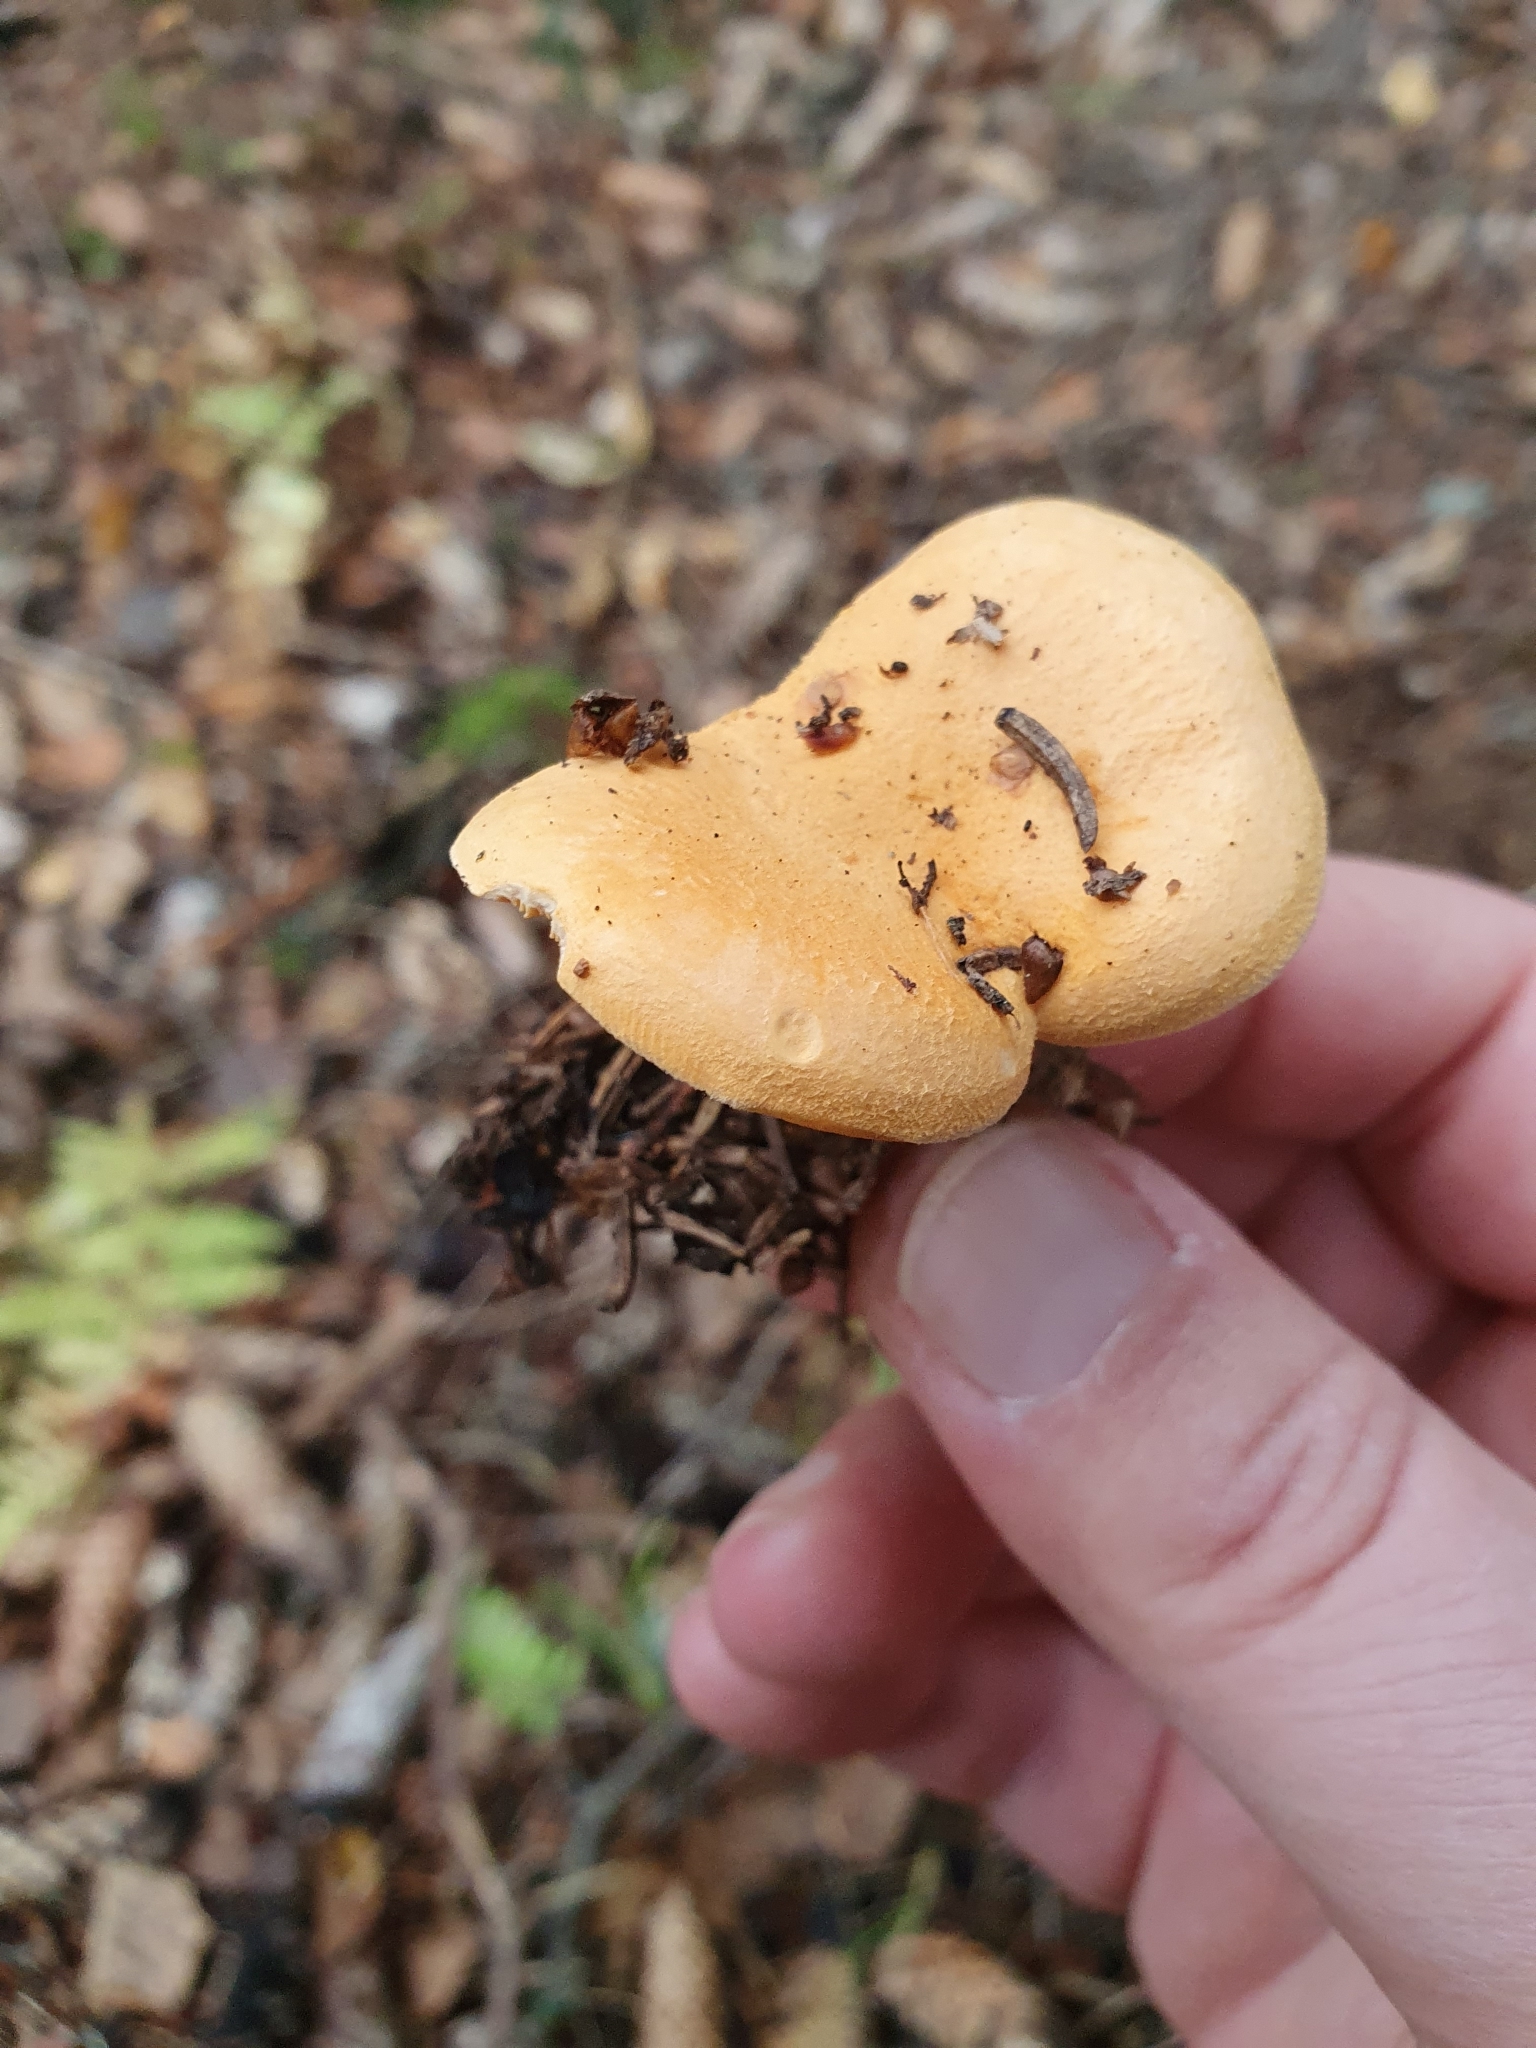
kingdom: Fungi
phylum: Basidiomycota
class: Agaricomycetes
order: Boletales
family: Hygrophoropsidaceae
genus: Hygrophoropsis
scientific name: Hygrophoropsis aurantiaca
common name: False chanterelle
